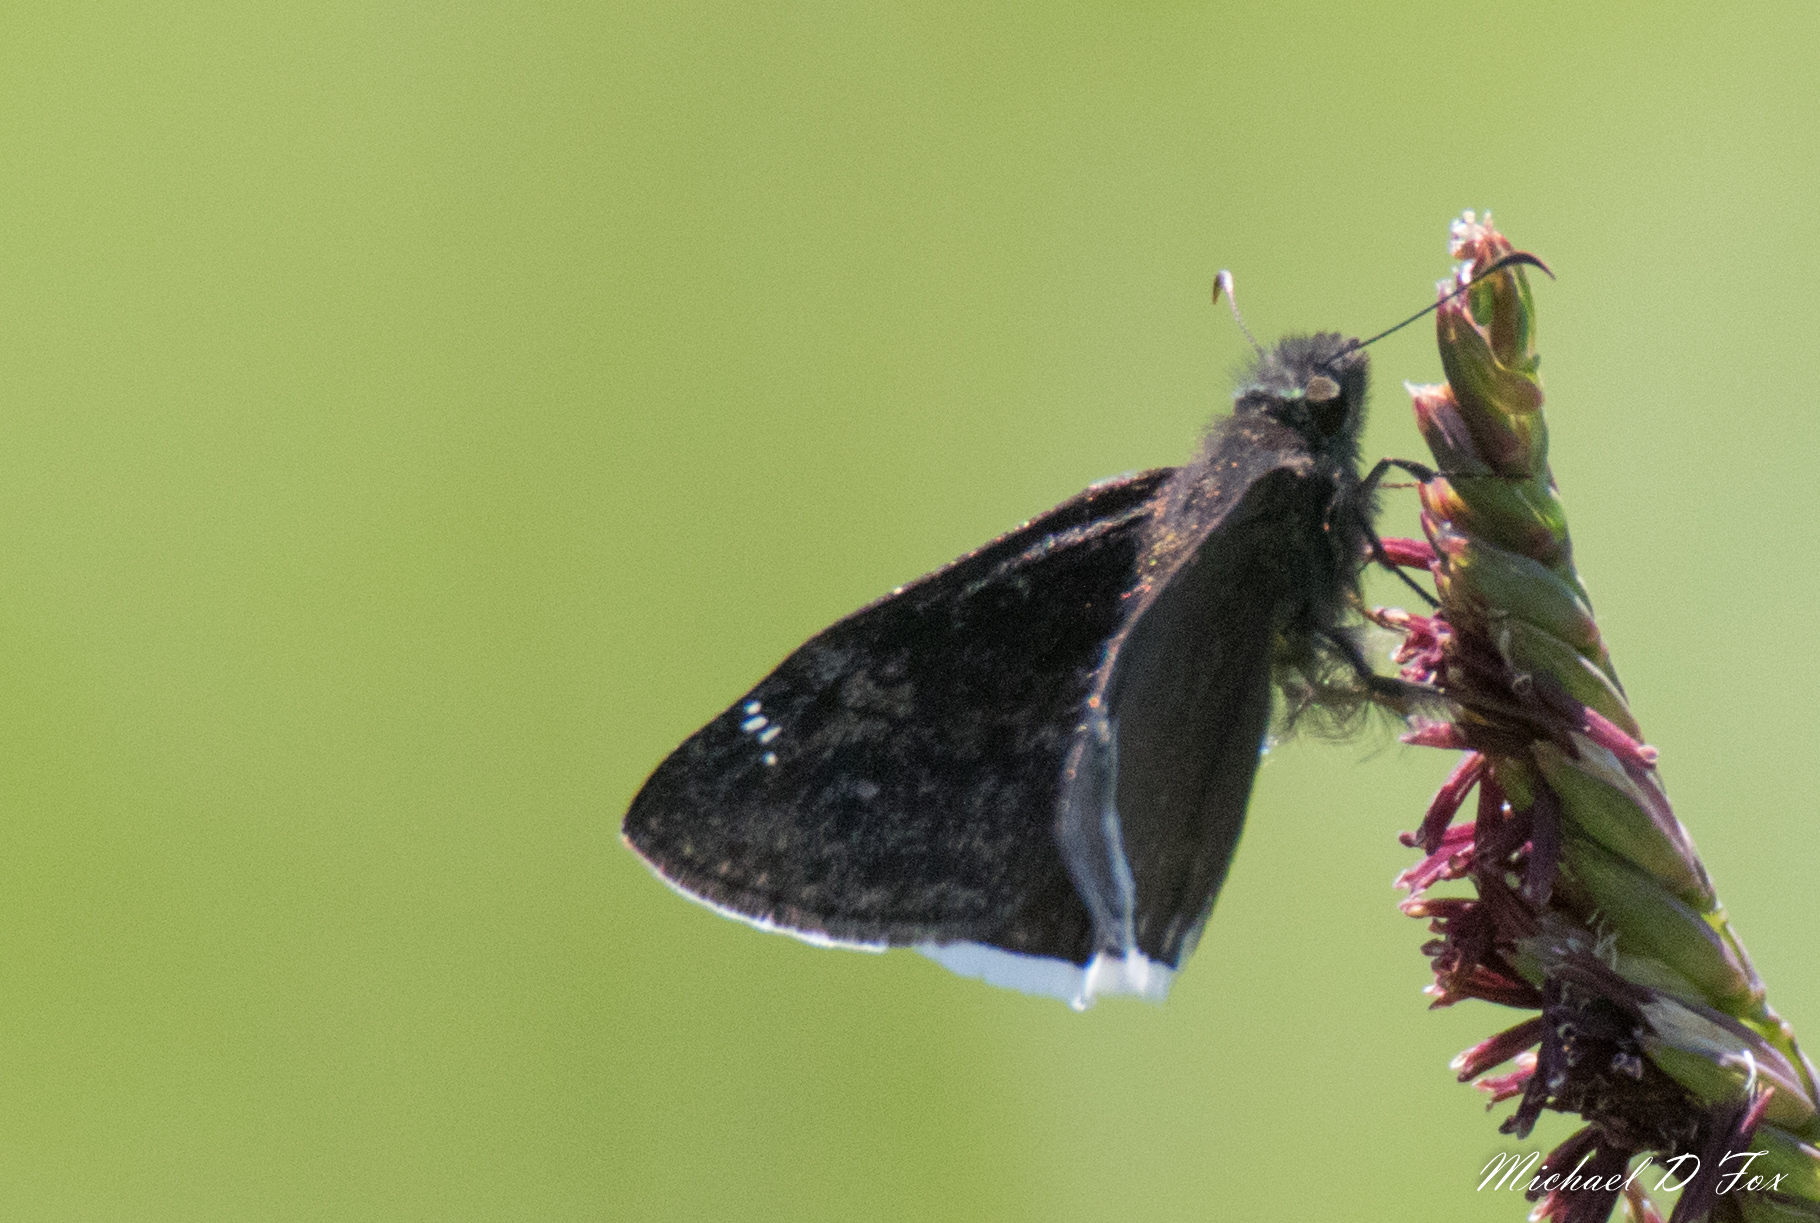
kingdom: Animalia
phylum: Arthropoda
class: Insecta
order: Lepidoptera
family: Hesperiidae
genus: Erynnis
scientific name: Erynnis funeralis
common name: Funereal duskywing
